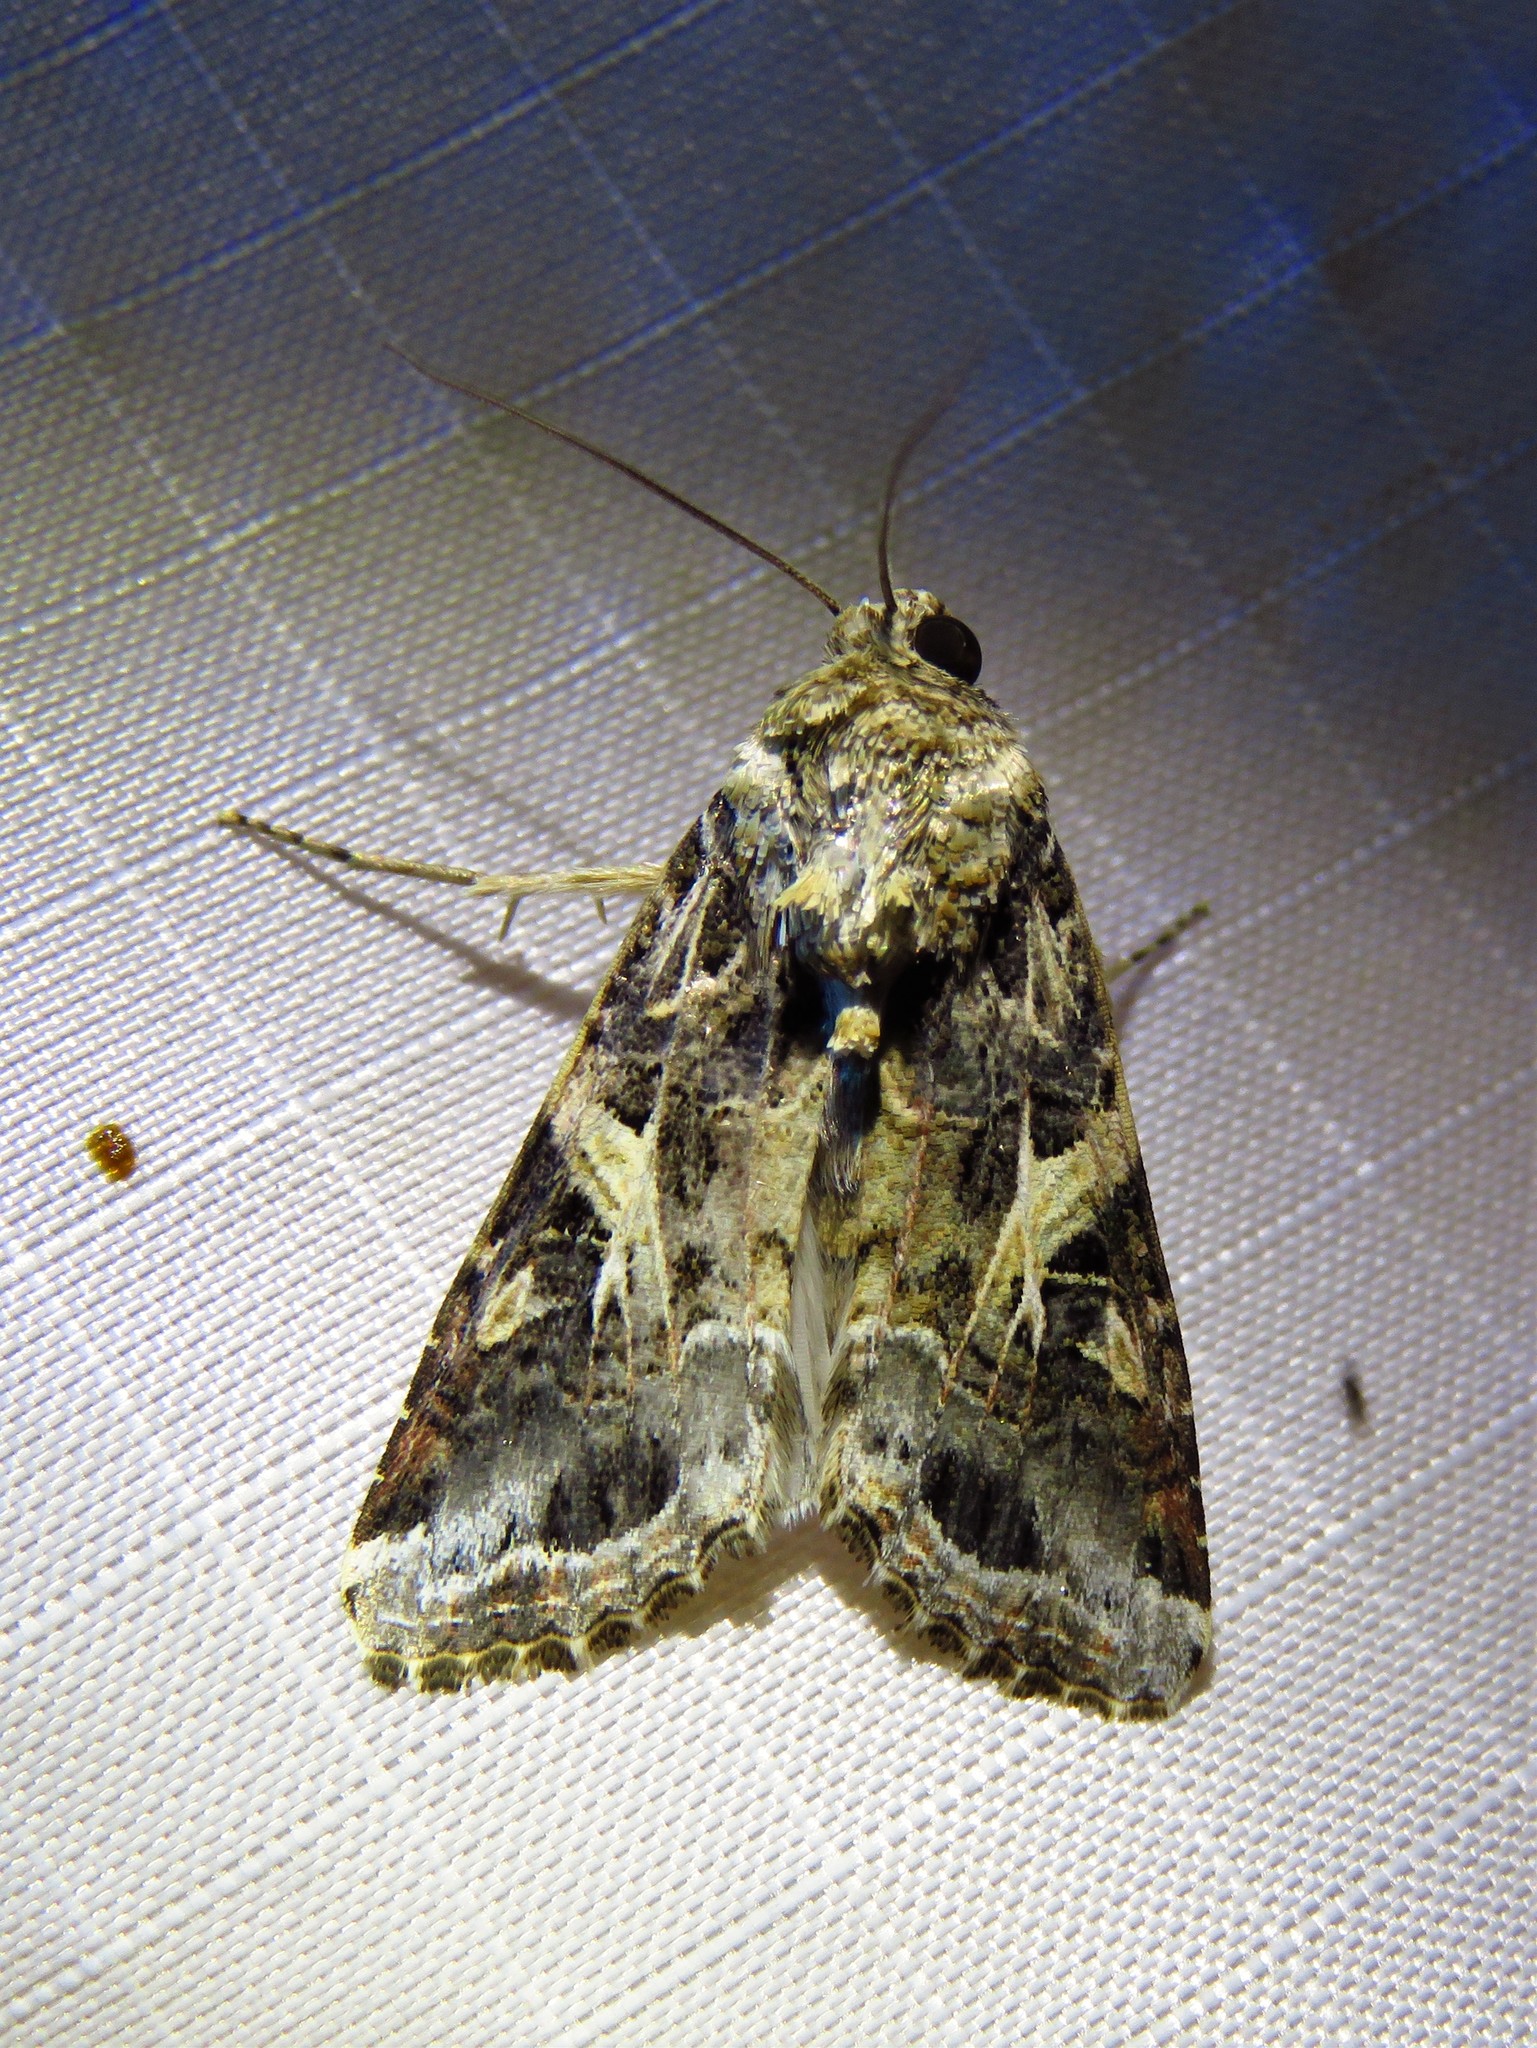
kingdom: Animalia
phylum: Arthropoda
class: Insecta
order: Lepidoptera
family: Noctuidae
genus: Spodoptera
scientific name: Spodoptera ornithogalli
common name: Yellow-striped armyworm
